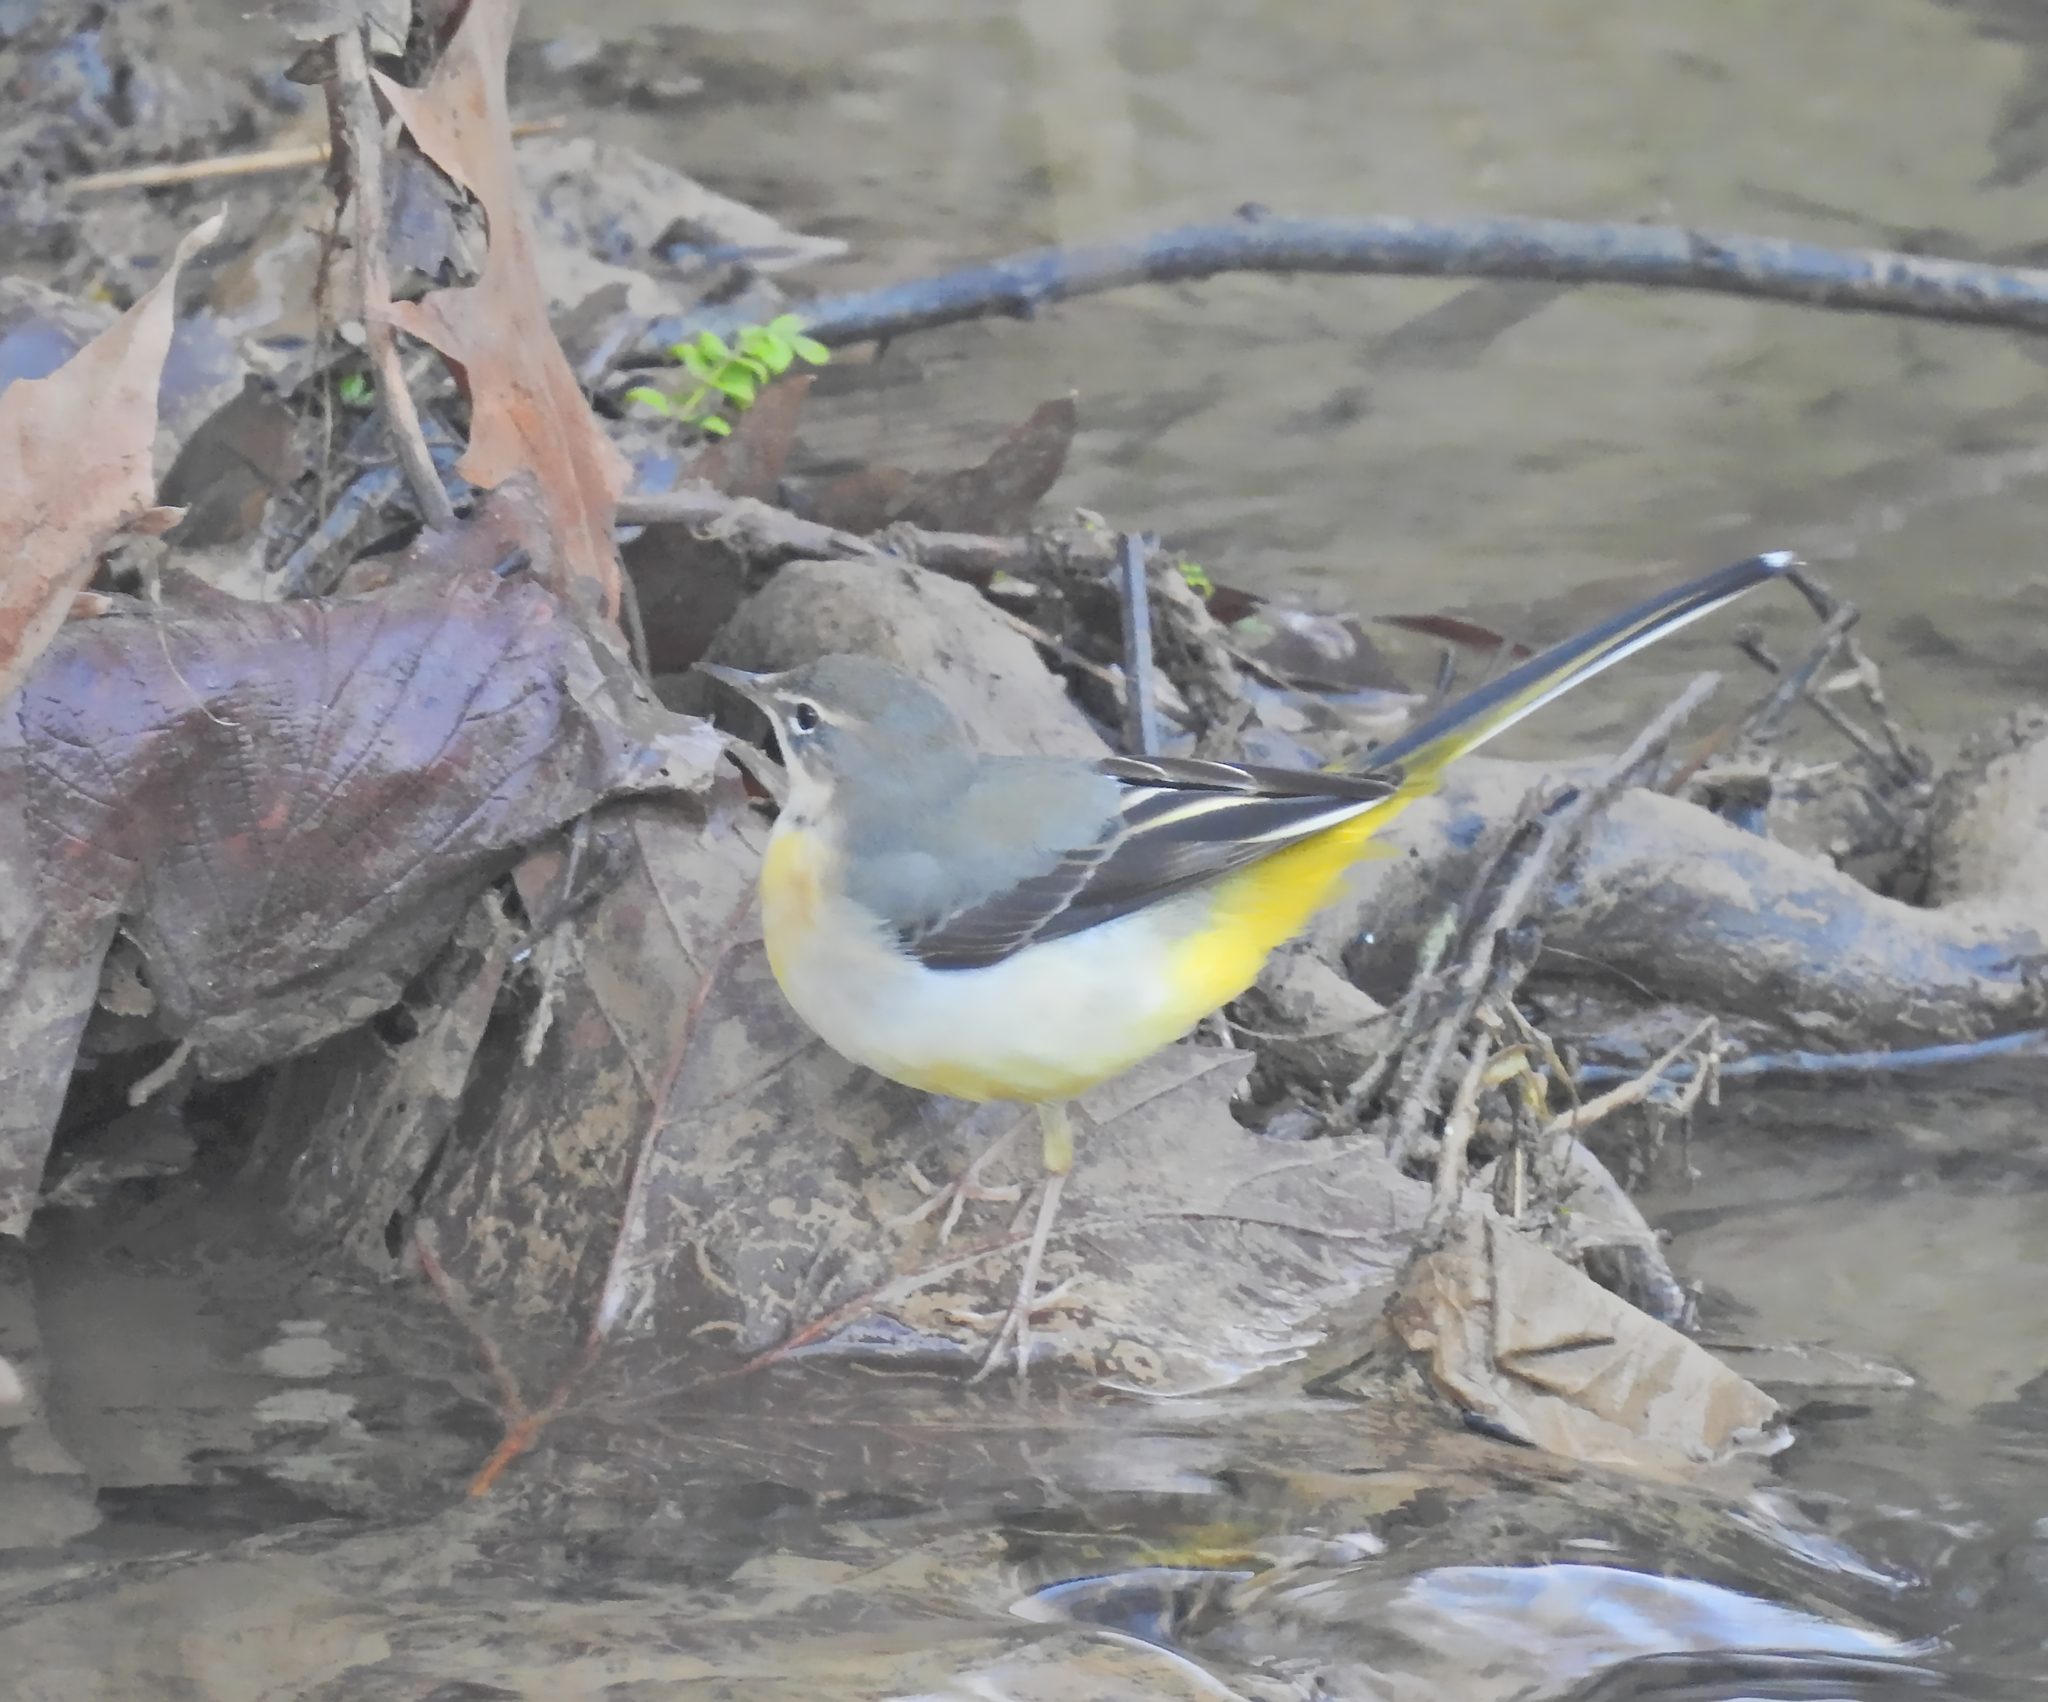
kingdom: Animalia
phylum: Chordata
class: Aves
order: Passeriformes
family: Motacillidae
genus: Motacilla
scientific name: Motacilla cinerea
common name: Grey wagtail
